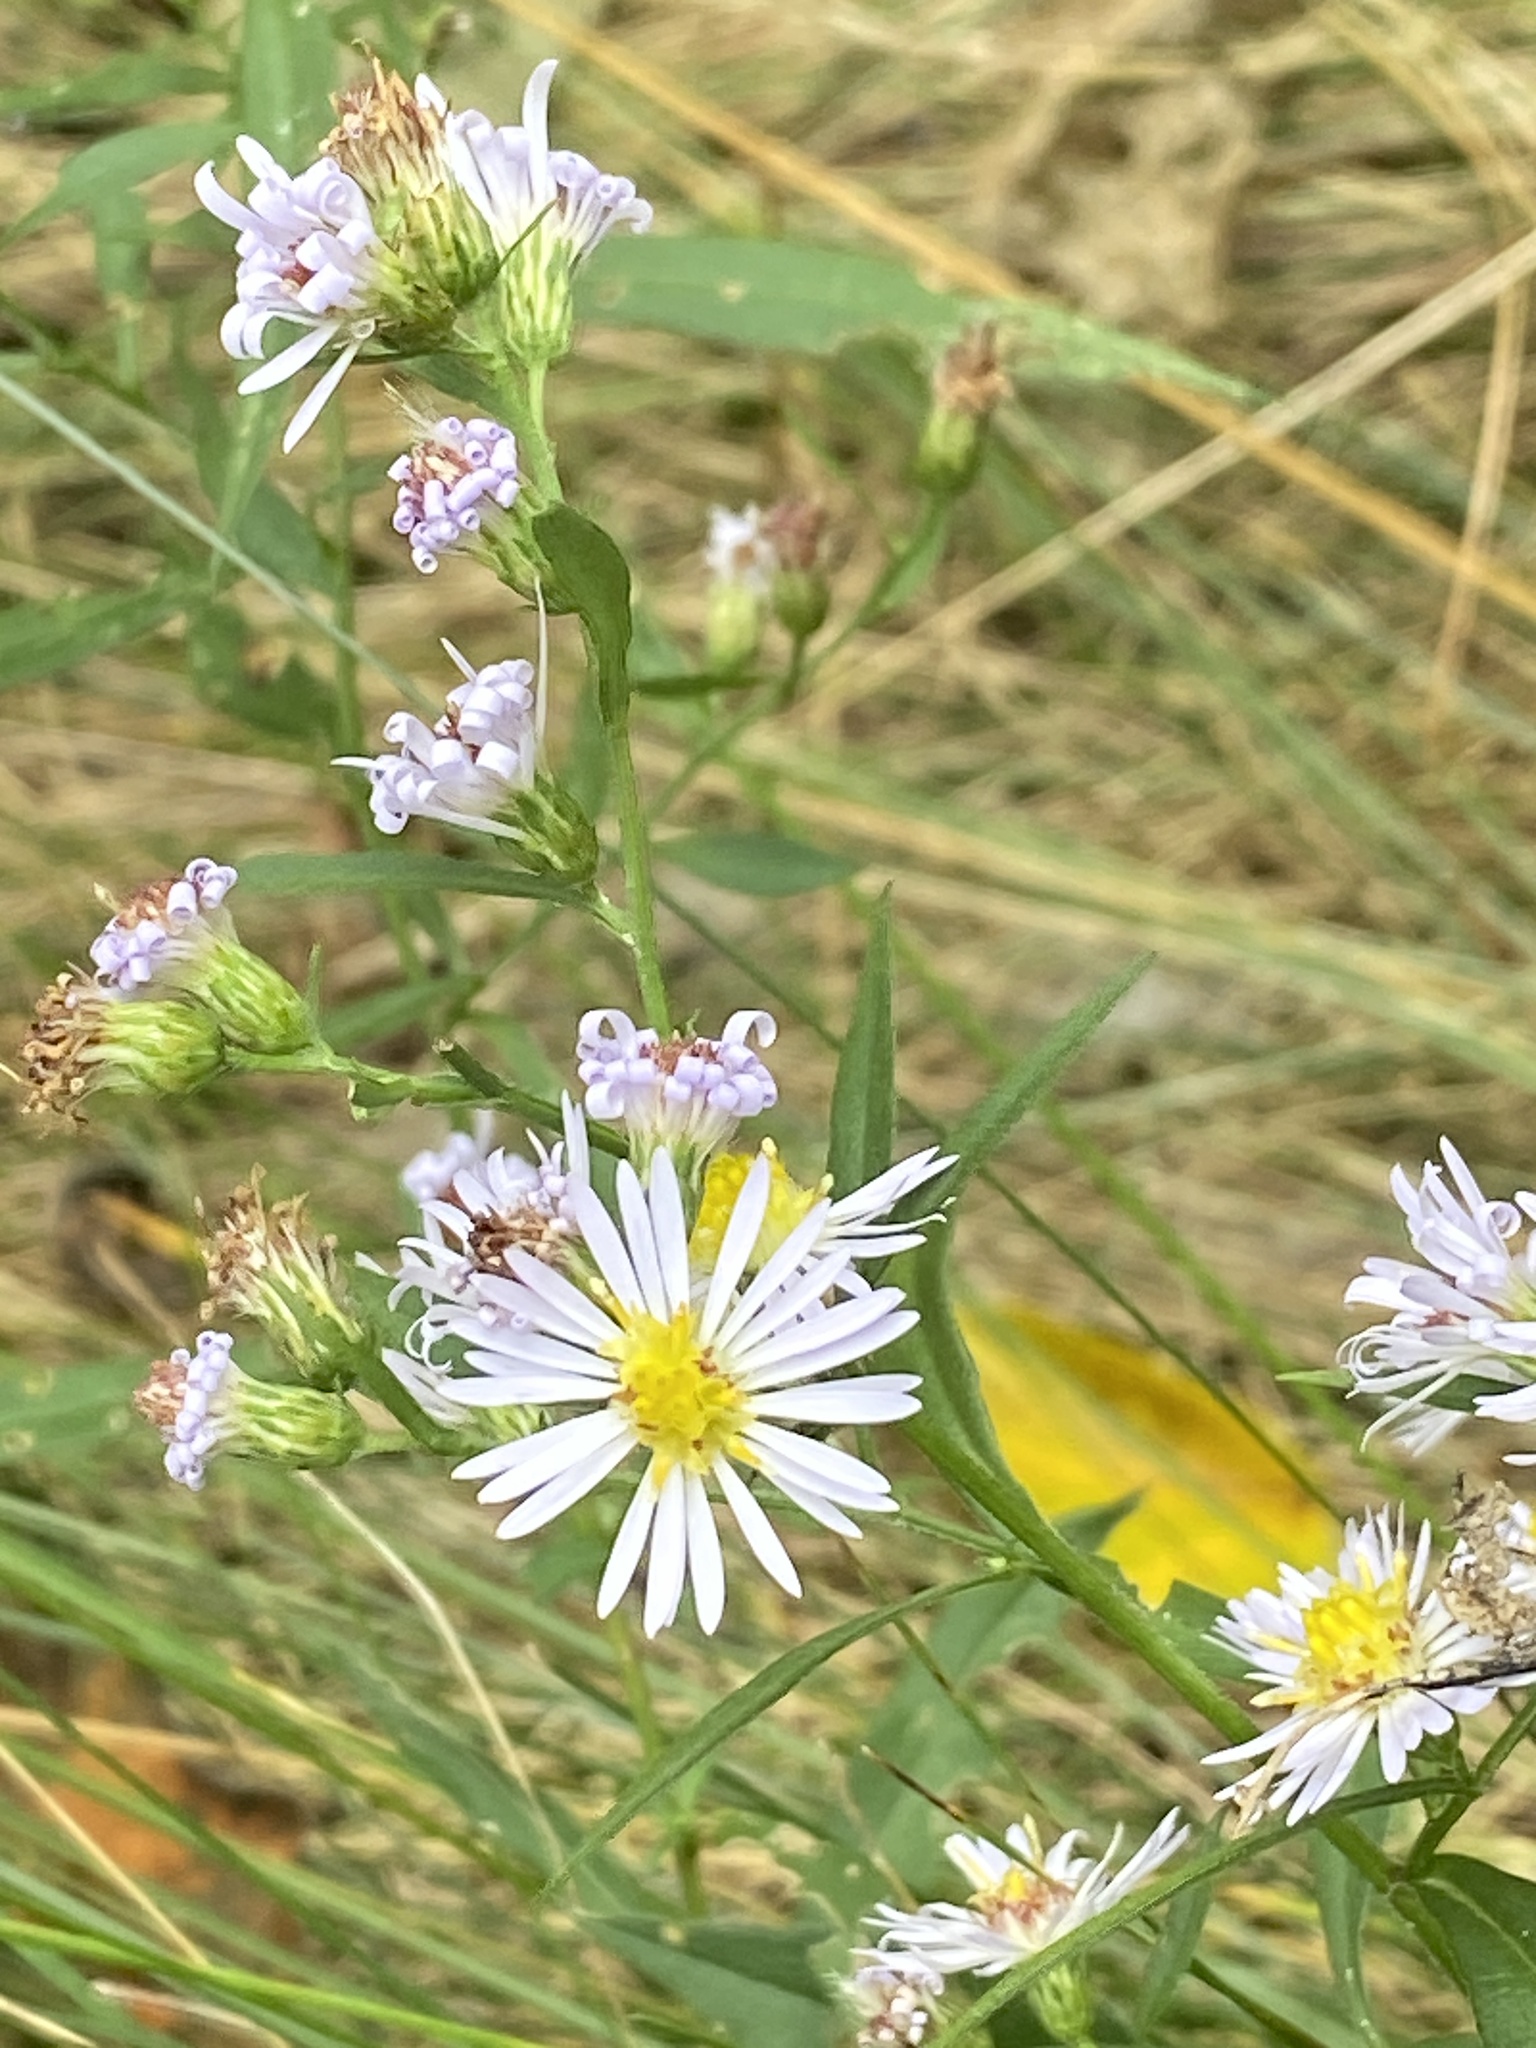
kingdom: Plantae
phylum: Tracheophyta
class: Magnoliopsida
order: Asterales
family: Asteraceae
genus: Symphyotrichum
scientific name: Symphyotrichum lanceolatum
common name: Panicled aster
